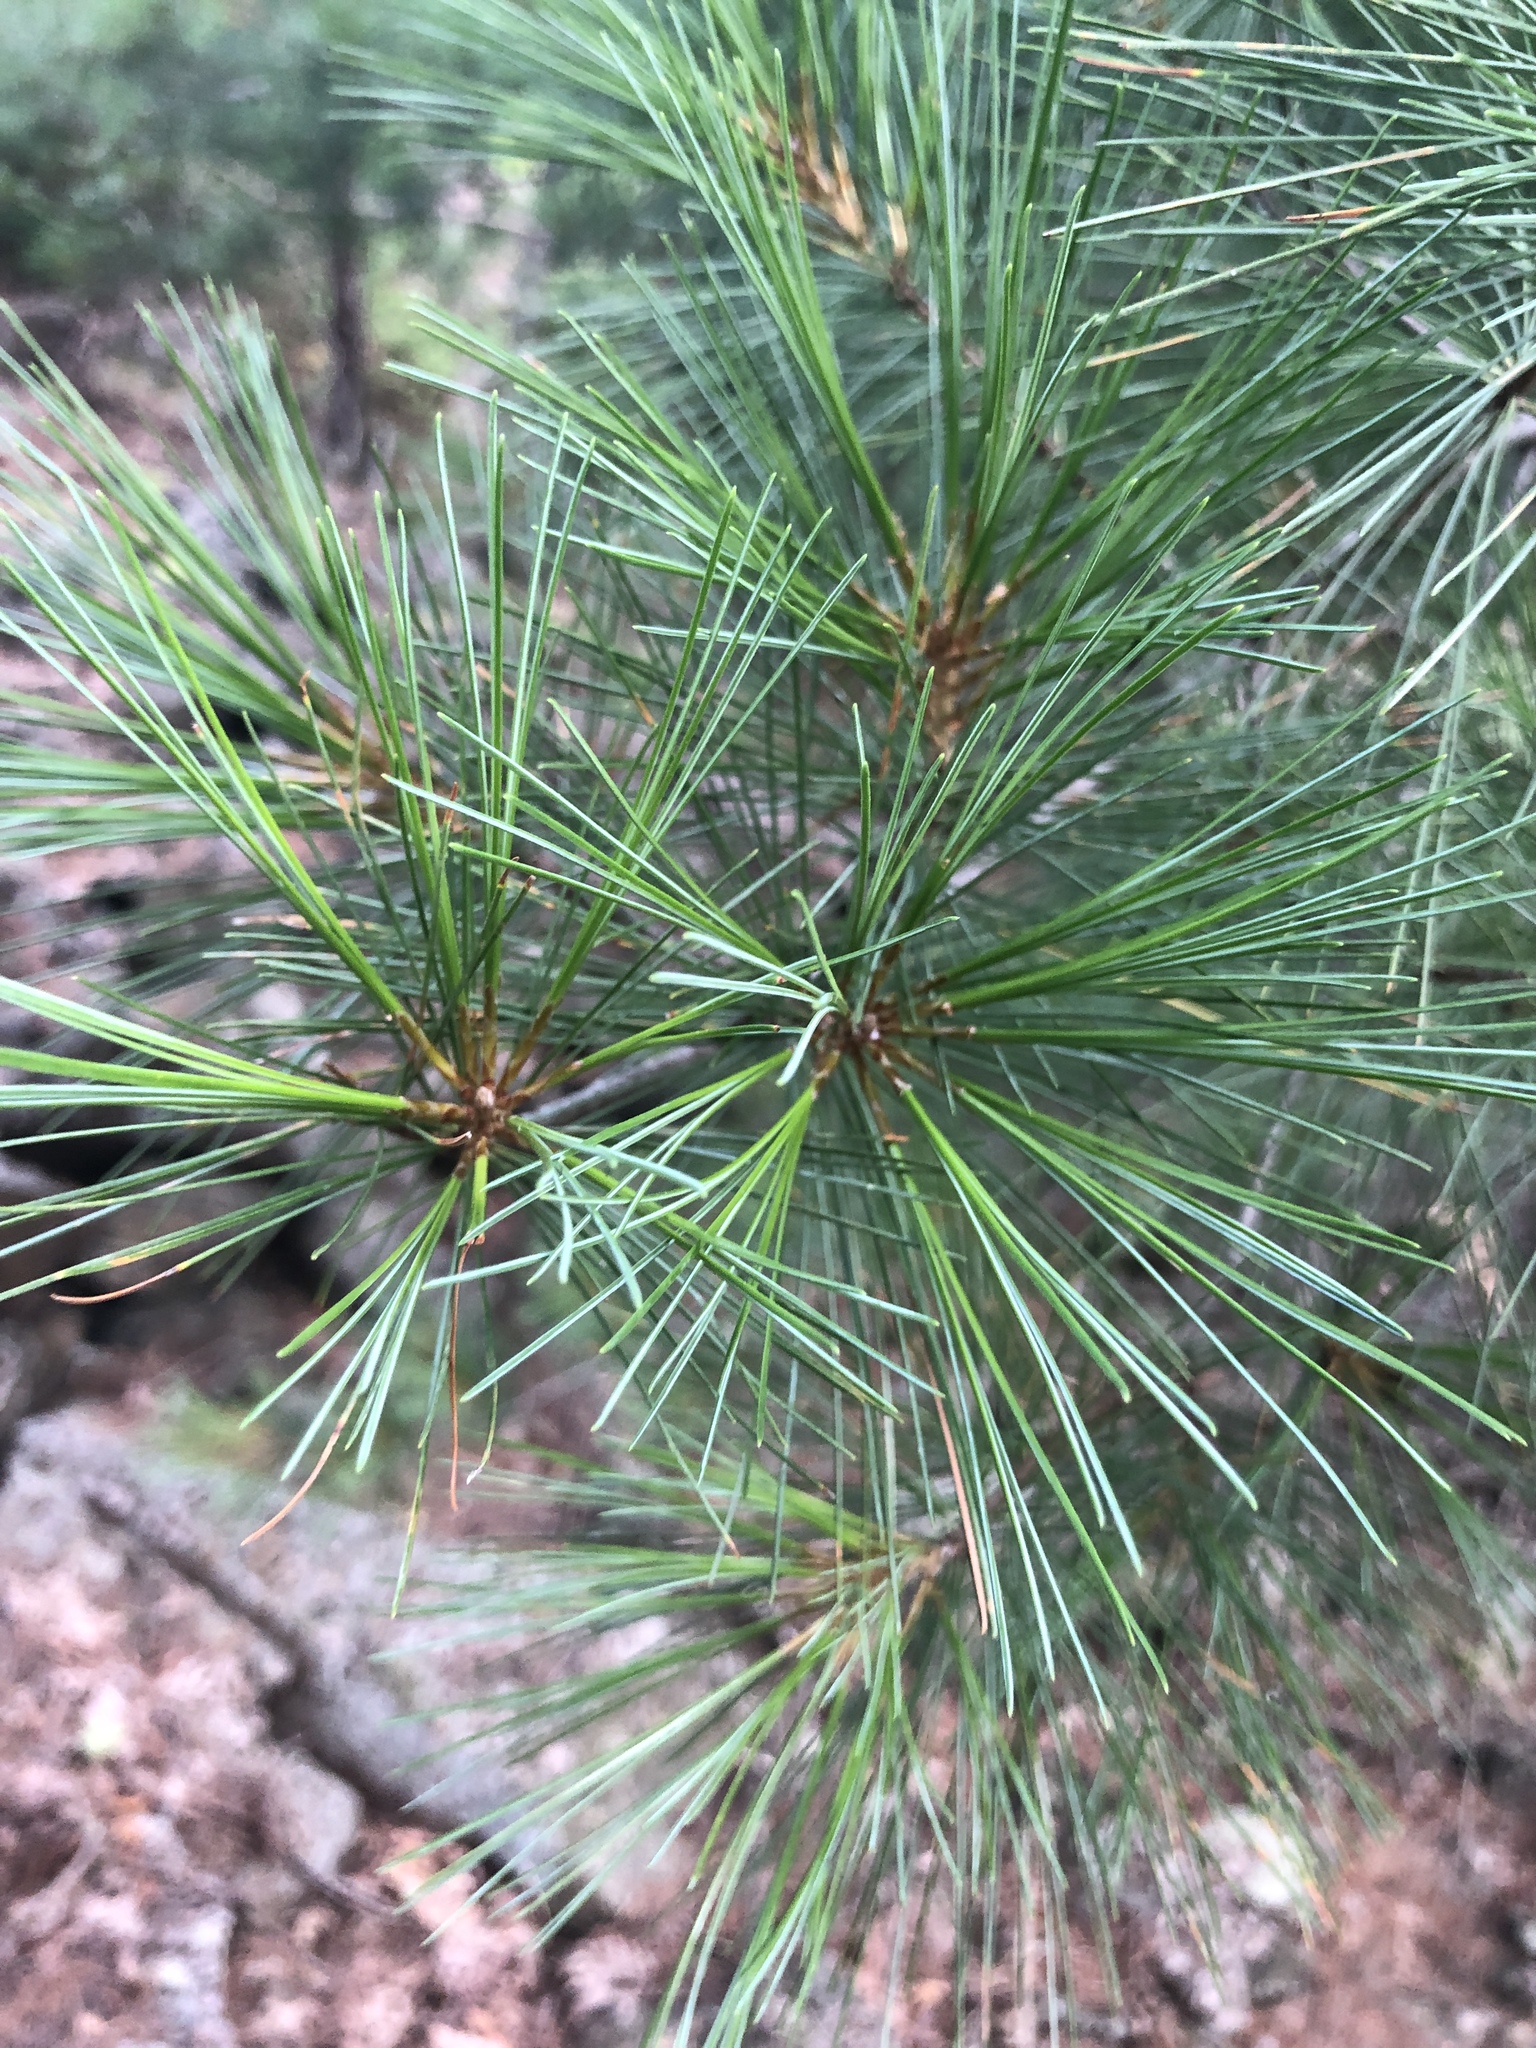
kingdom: Plantae
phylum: Tracheophyta
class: Pinopsida
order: Pinales
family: Pinaceae
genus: Pinus
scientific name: Pinus strobus
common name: Weymouth pine
